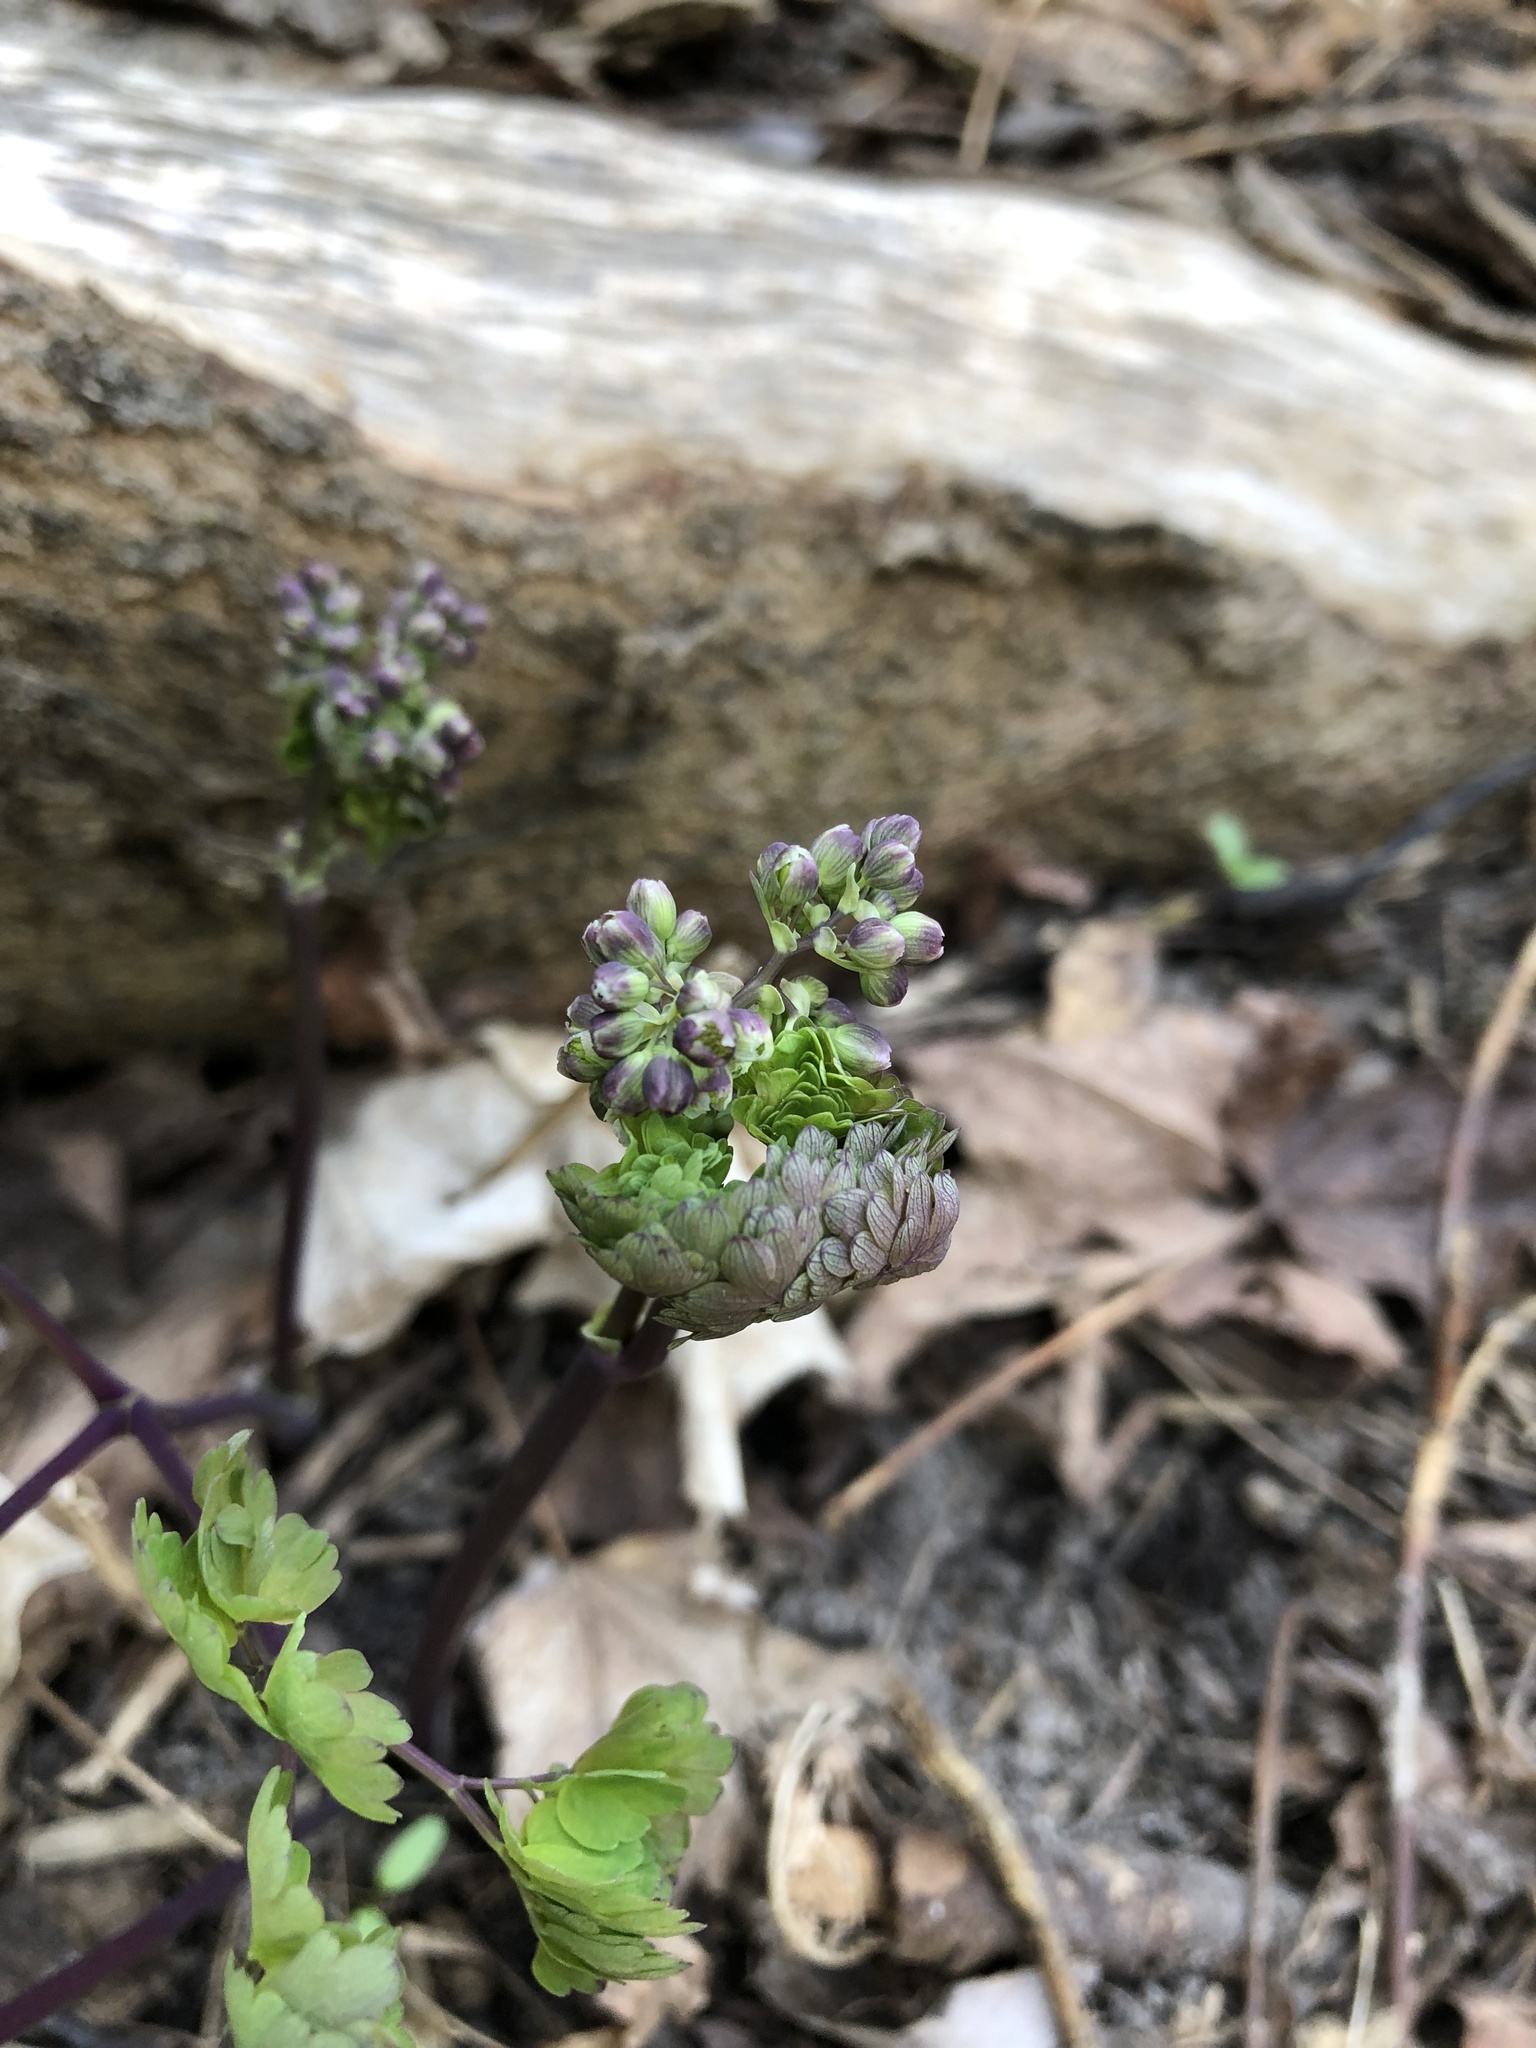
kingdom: Plantae
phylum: Tracheophyta
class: Magnoliopsida
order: Ranunculales
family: Ranunculaceae
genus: Thalictrum
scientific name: Thalictrum dioicum
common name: Early meadow-rue
